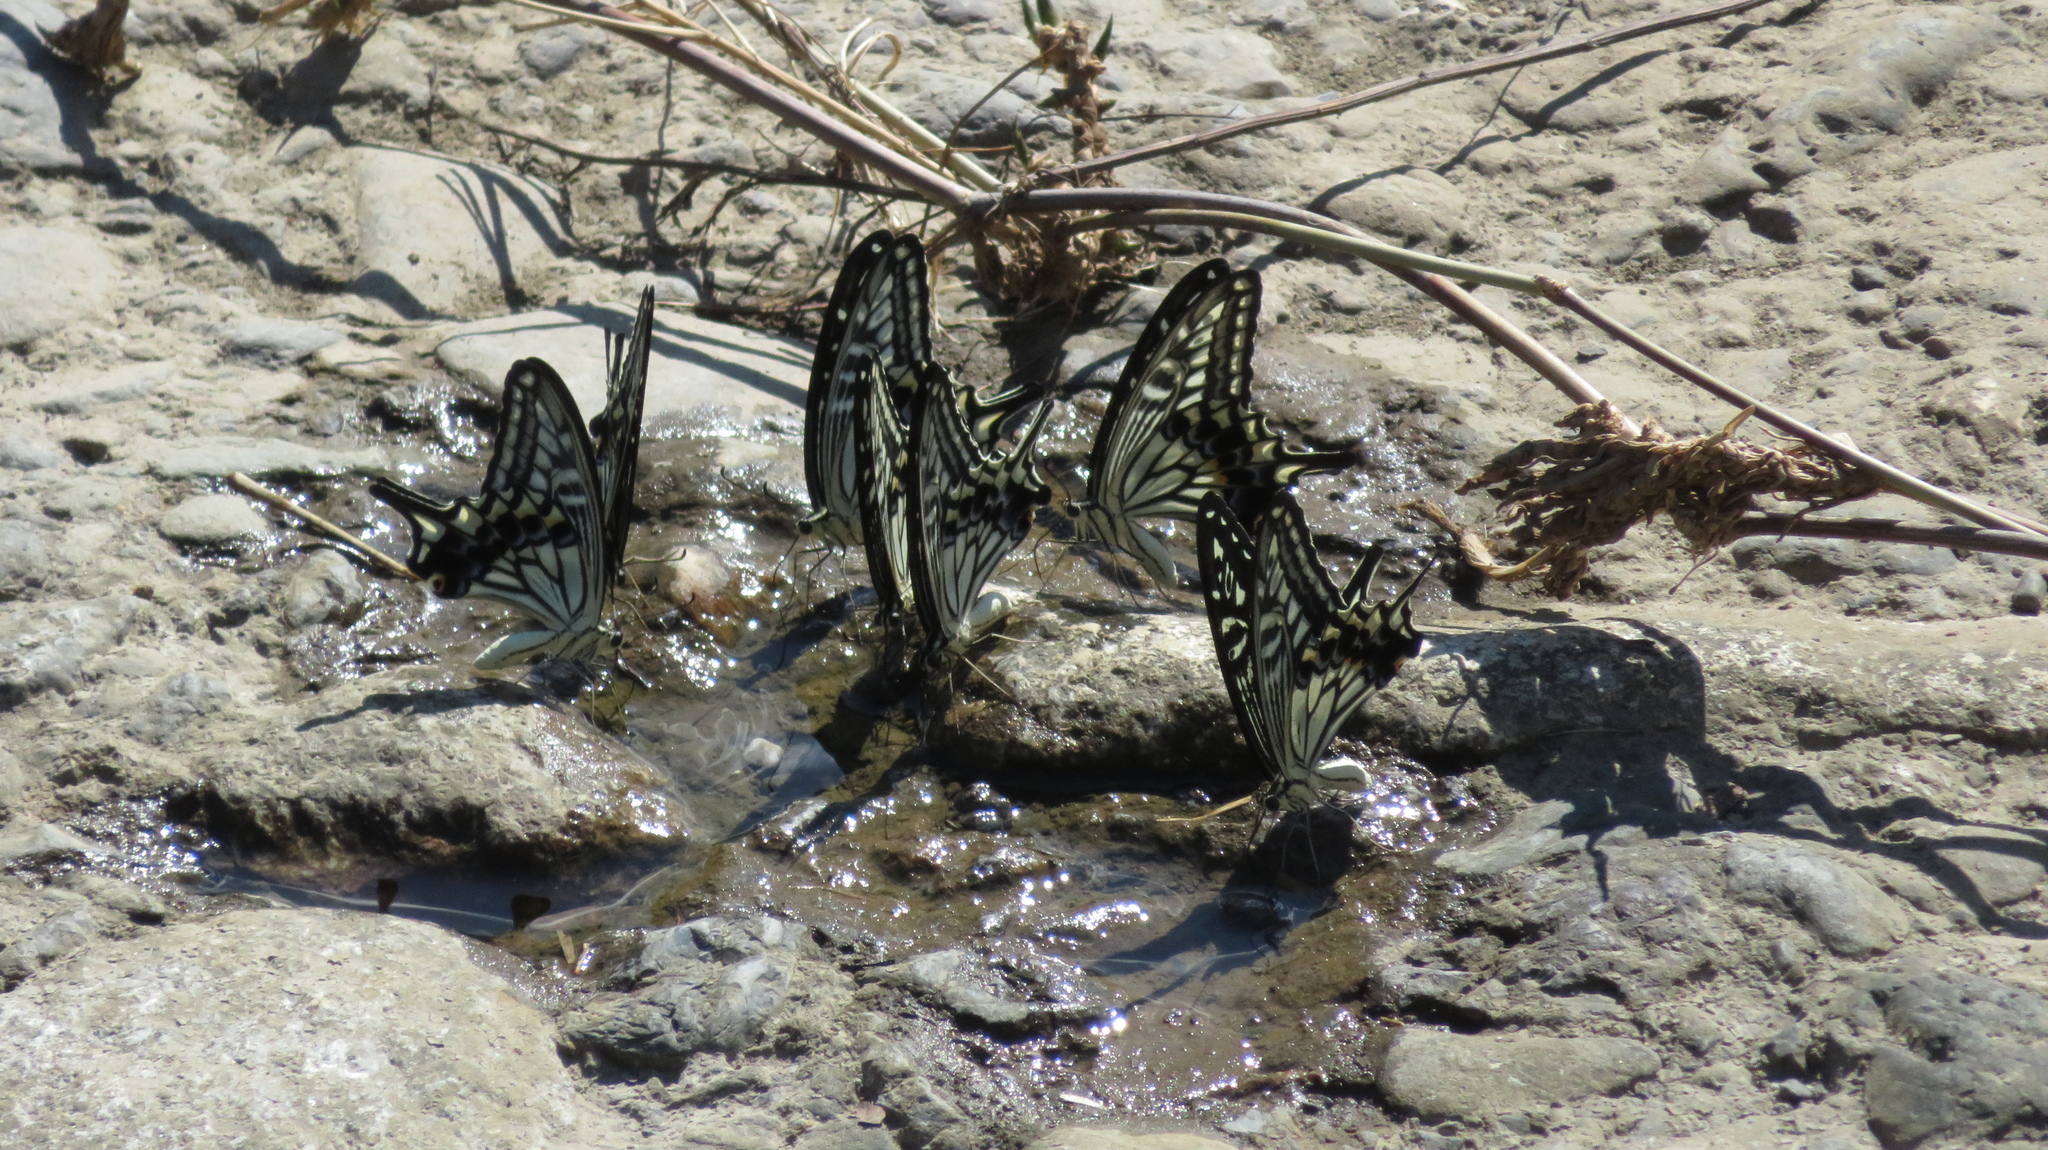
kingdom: Animalia
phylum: Arthropoda
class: Insecta
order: Lepidoptera
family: Papilionidae
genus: Papilio
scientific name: Papilio xuthus
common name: Asian swallowtail
